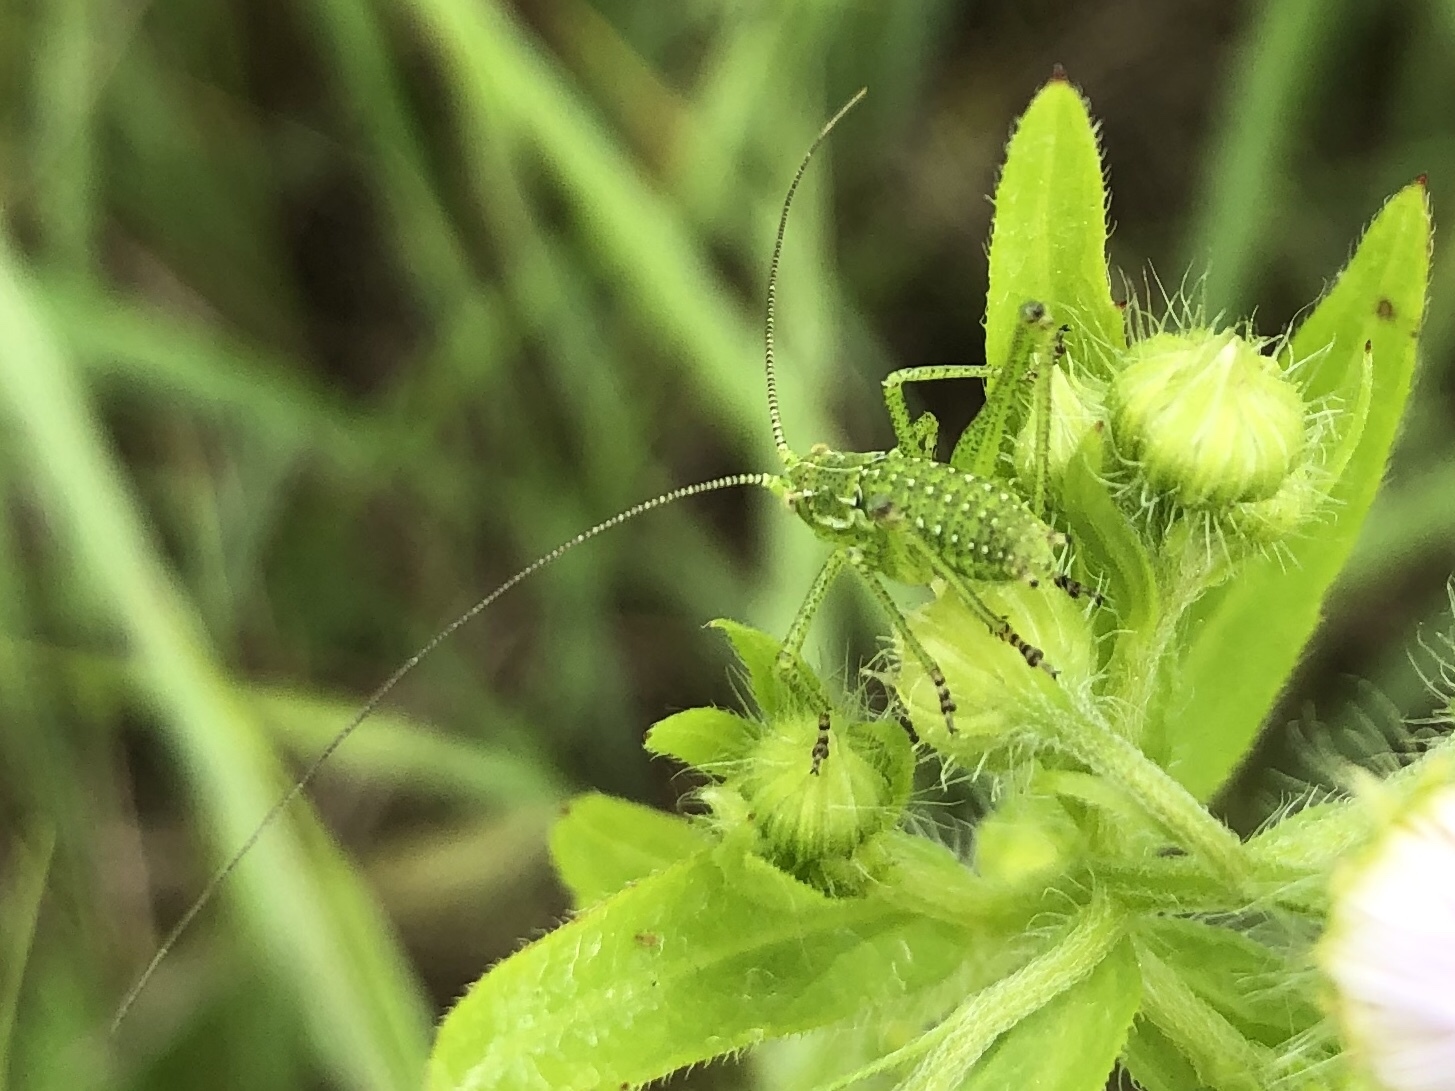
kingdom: Animalia
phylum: Arthropoda
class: Insecta
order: Orthoptera
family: Tettigoniidae
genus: Leptophyes
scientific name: Leptophyes albovittata
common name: Striped bush-cricket
